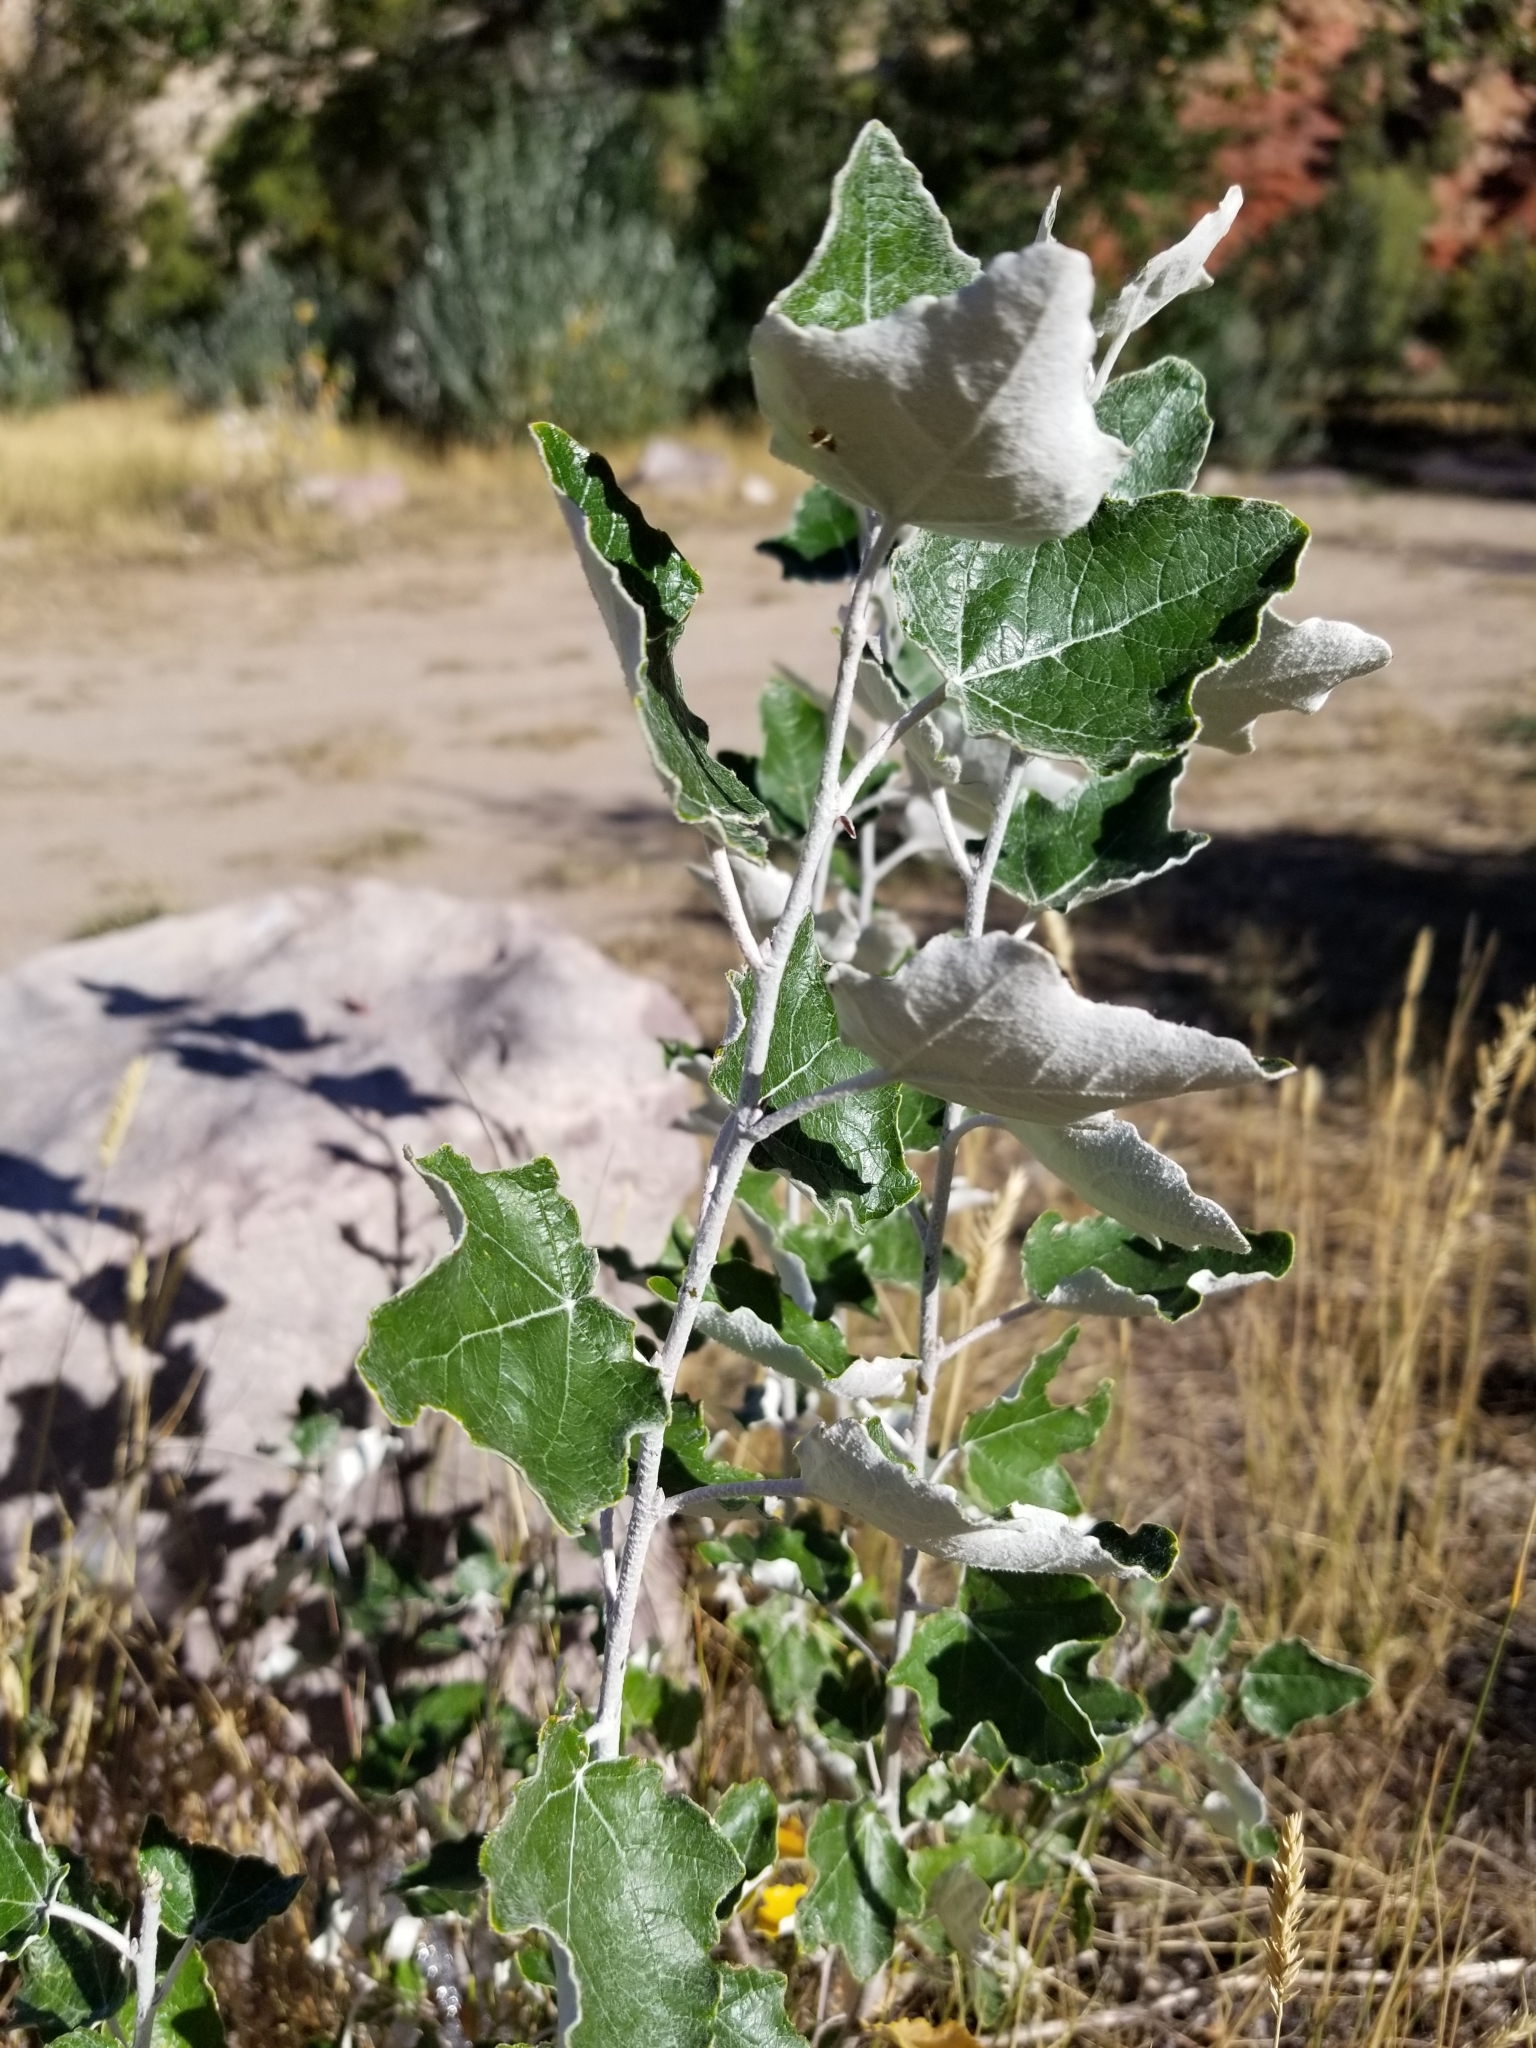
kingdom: Plantae
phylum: Tracheophyta
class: Magnoliopsida
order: Malpighiales
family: Salicaceae
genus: Populus
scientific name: Populus alba
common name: White poplar
